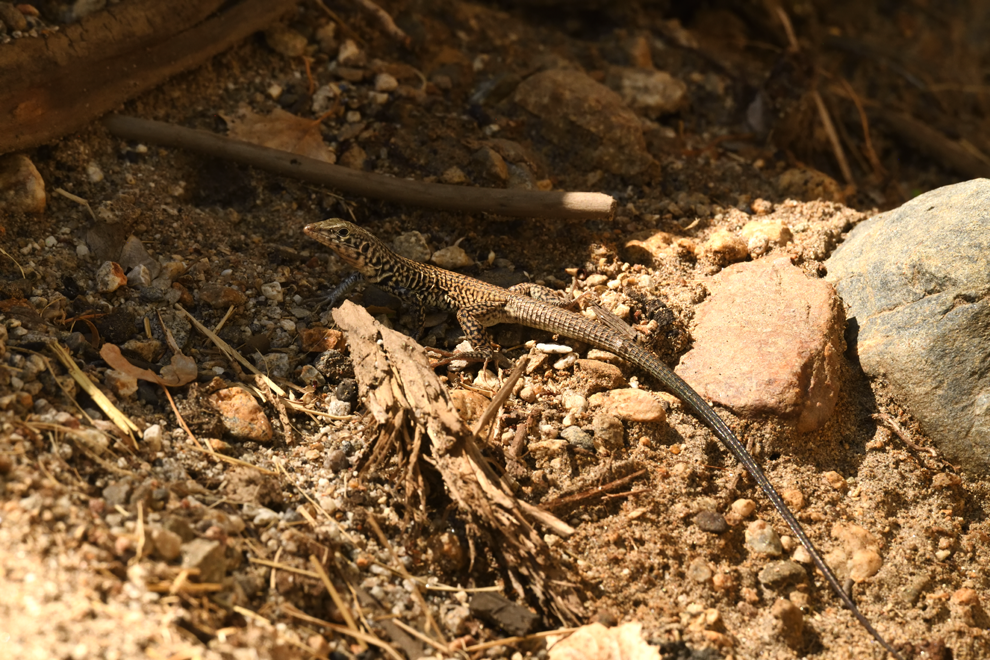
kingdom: Animalia
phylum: Chordata
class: Squamata
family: Teiidae
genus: Aspidoscelis
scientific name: Aspidoscelis tigris
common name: Tiger whiptail
